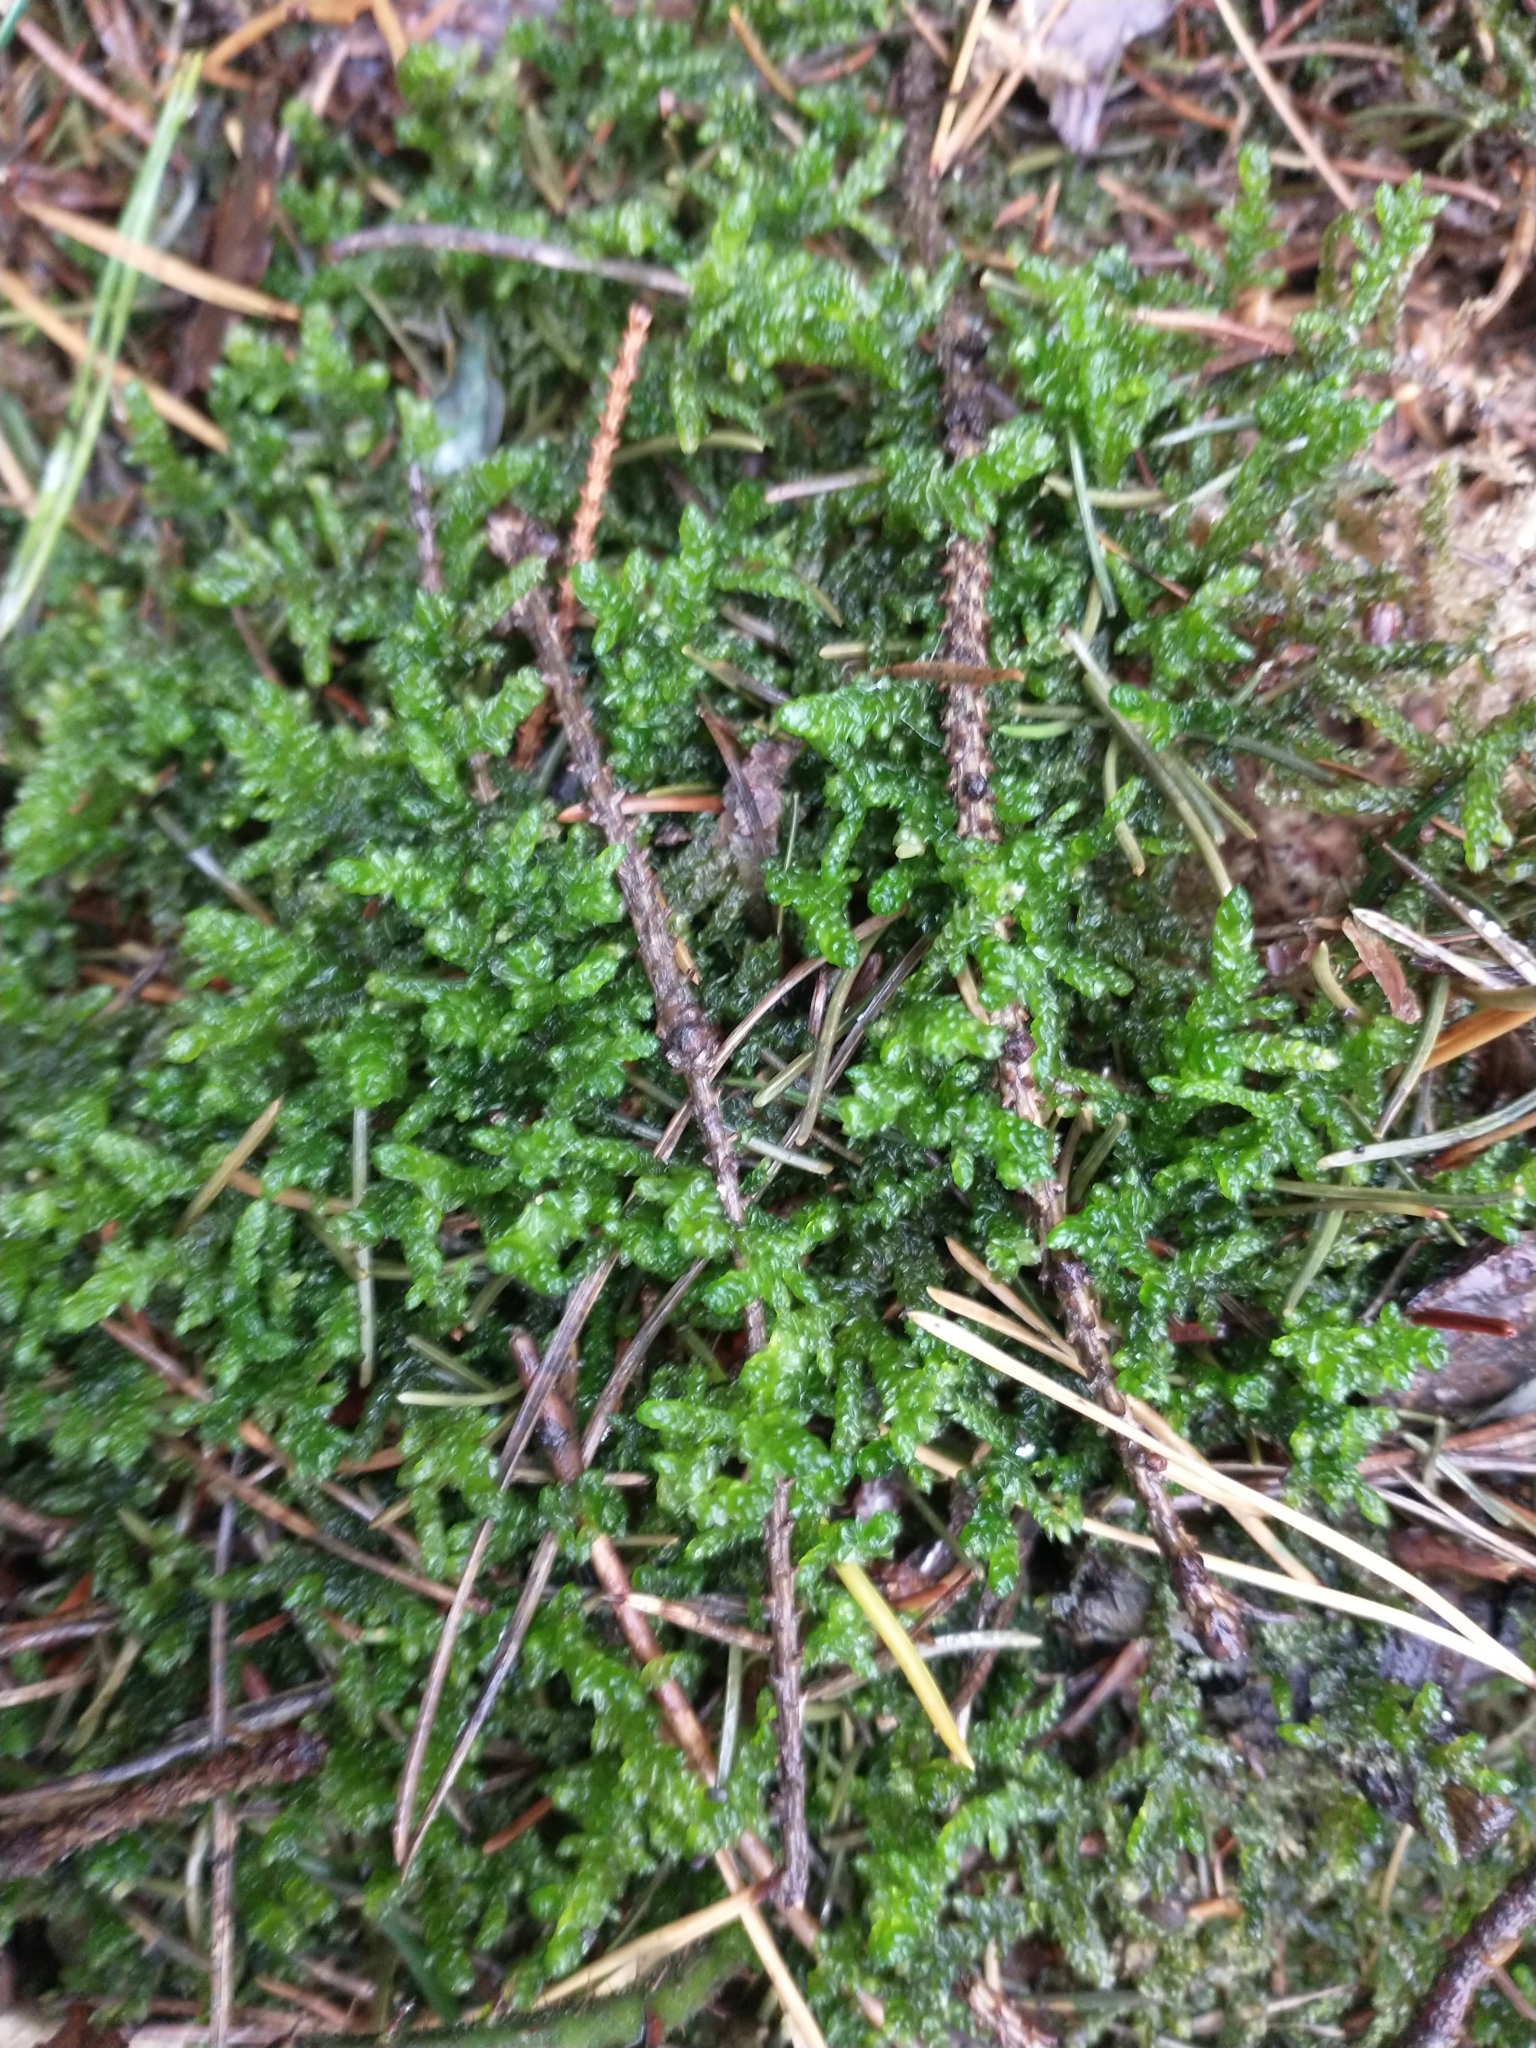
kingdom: Plantae
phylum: Bryophyta
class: Bryopsida
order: Hypnales
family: Brachytheciaceae
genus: Pseudoscleropodium
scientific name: Pseudoscleropodium purum
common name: Neat feather-moss
